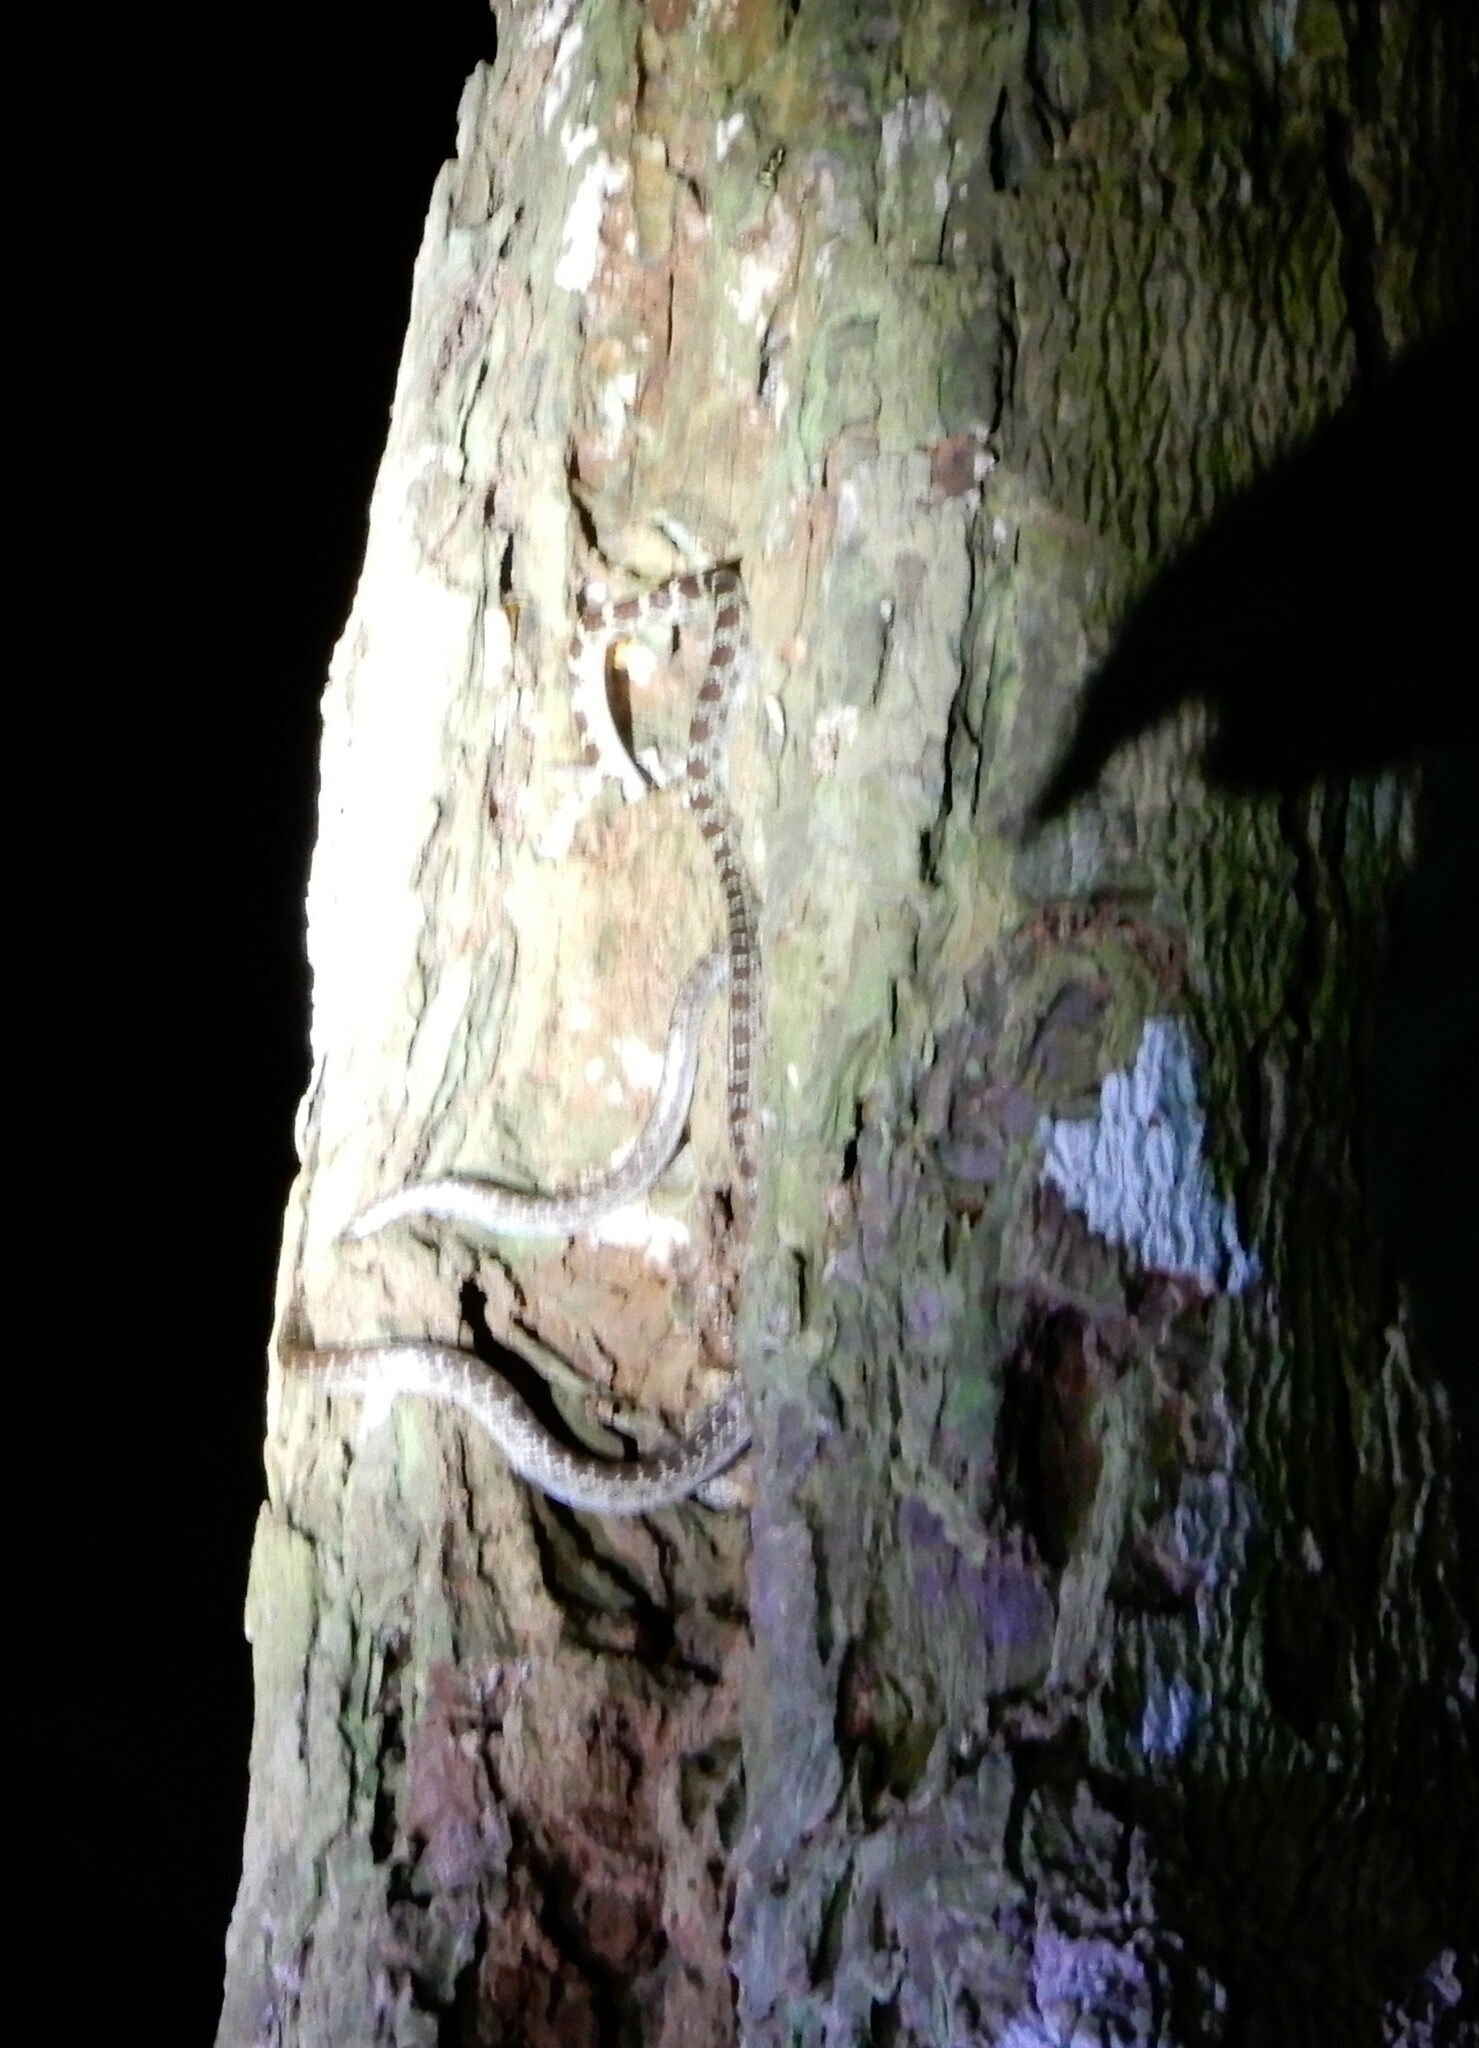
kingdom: Animalia
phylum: Chordata
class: Squamata
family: Colubridae
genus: Lycodon
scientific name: Lycodon subannulatus
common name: Malayan bridal snake
